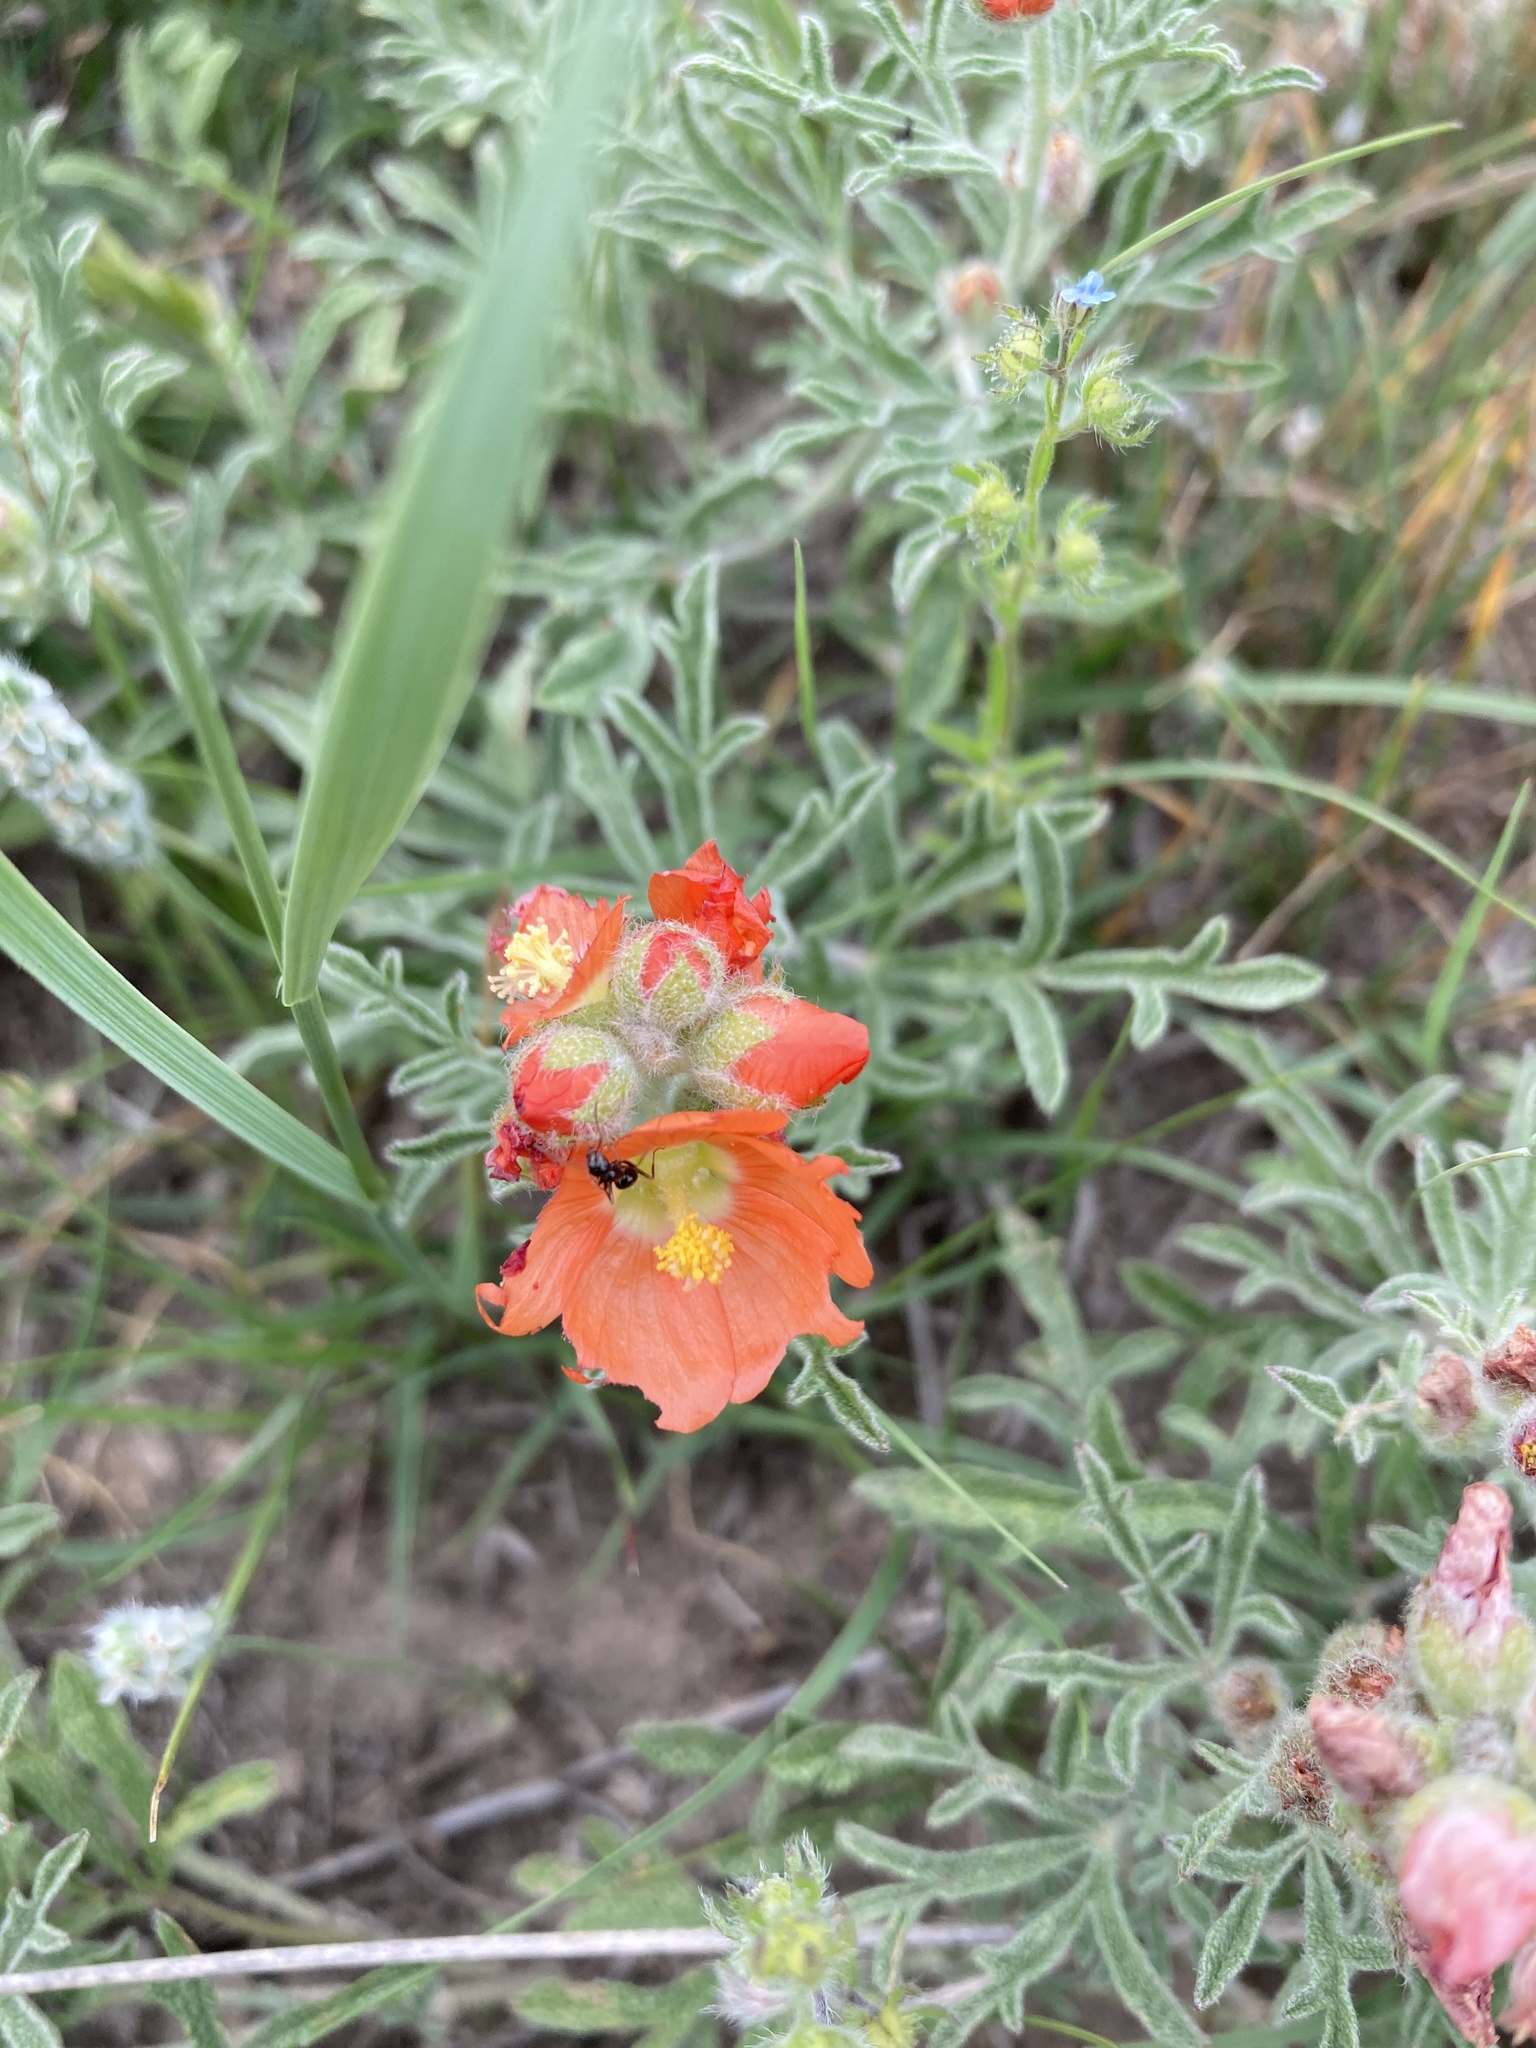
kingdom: Plantae
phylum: Tracheophyta
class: Magnoliopsida
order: Malvales
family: Malvaceae
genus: Sphaeralcea
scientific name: Sphaeralcea coccinea
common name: Moss-rose
